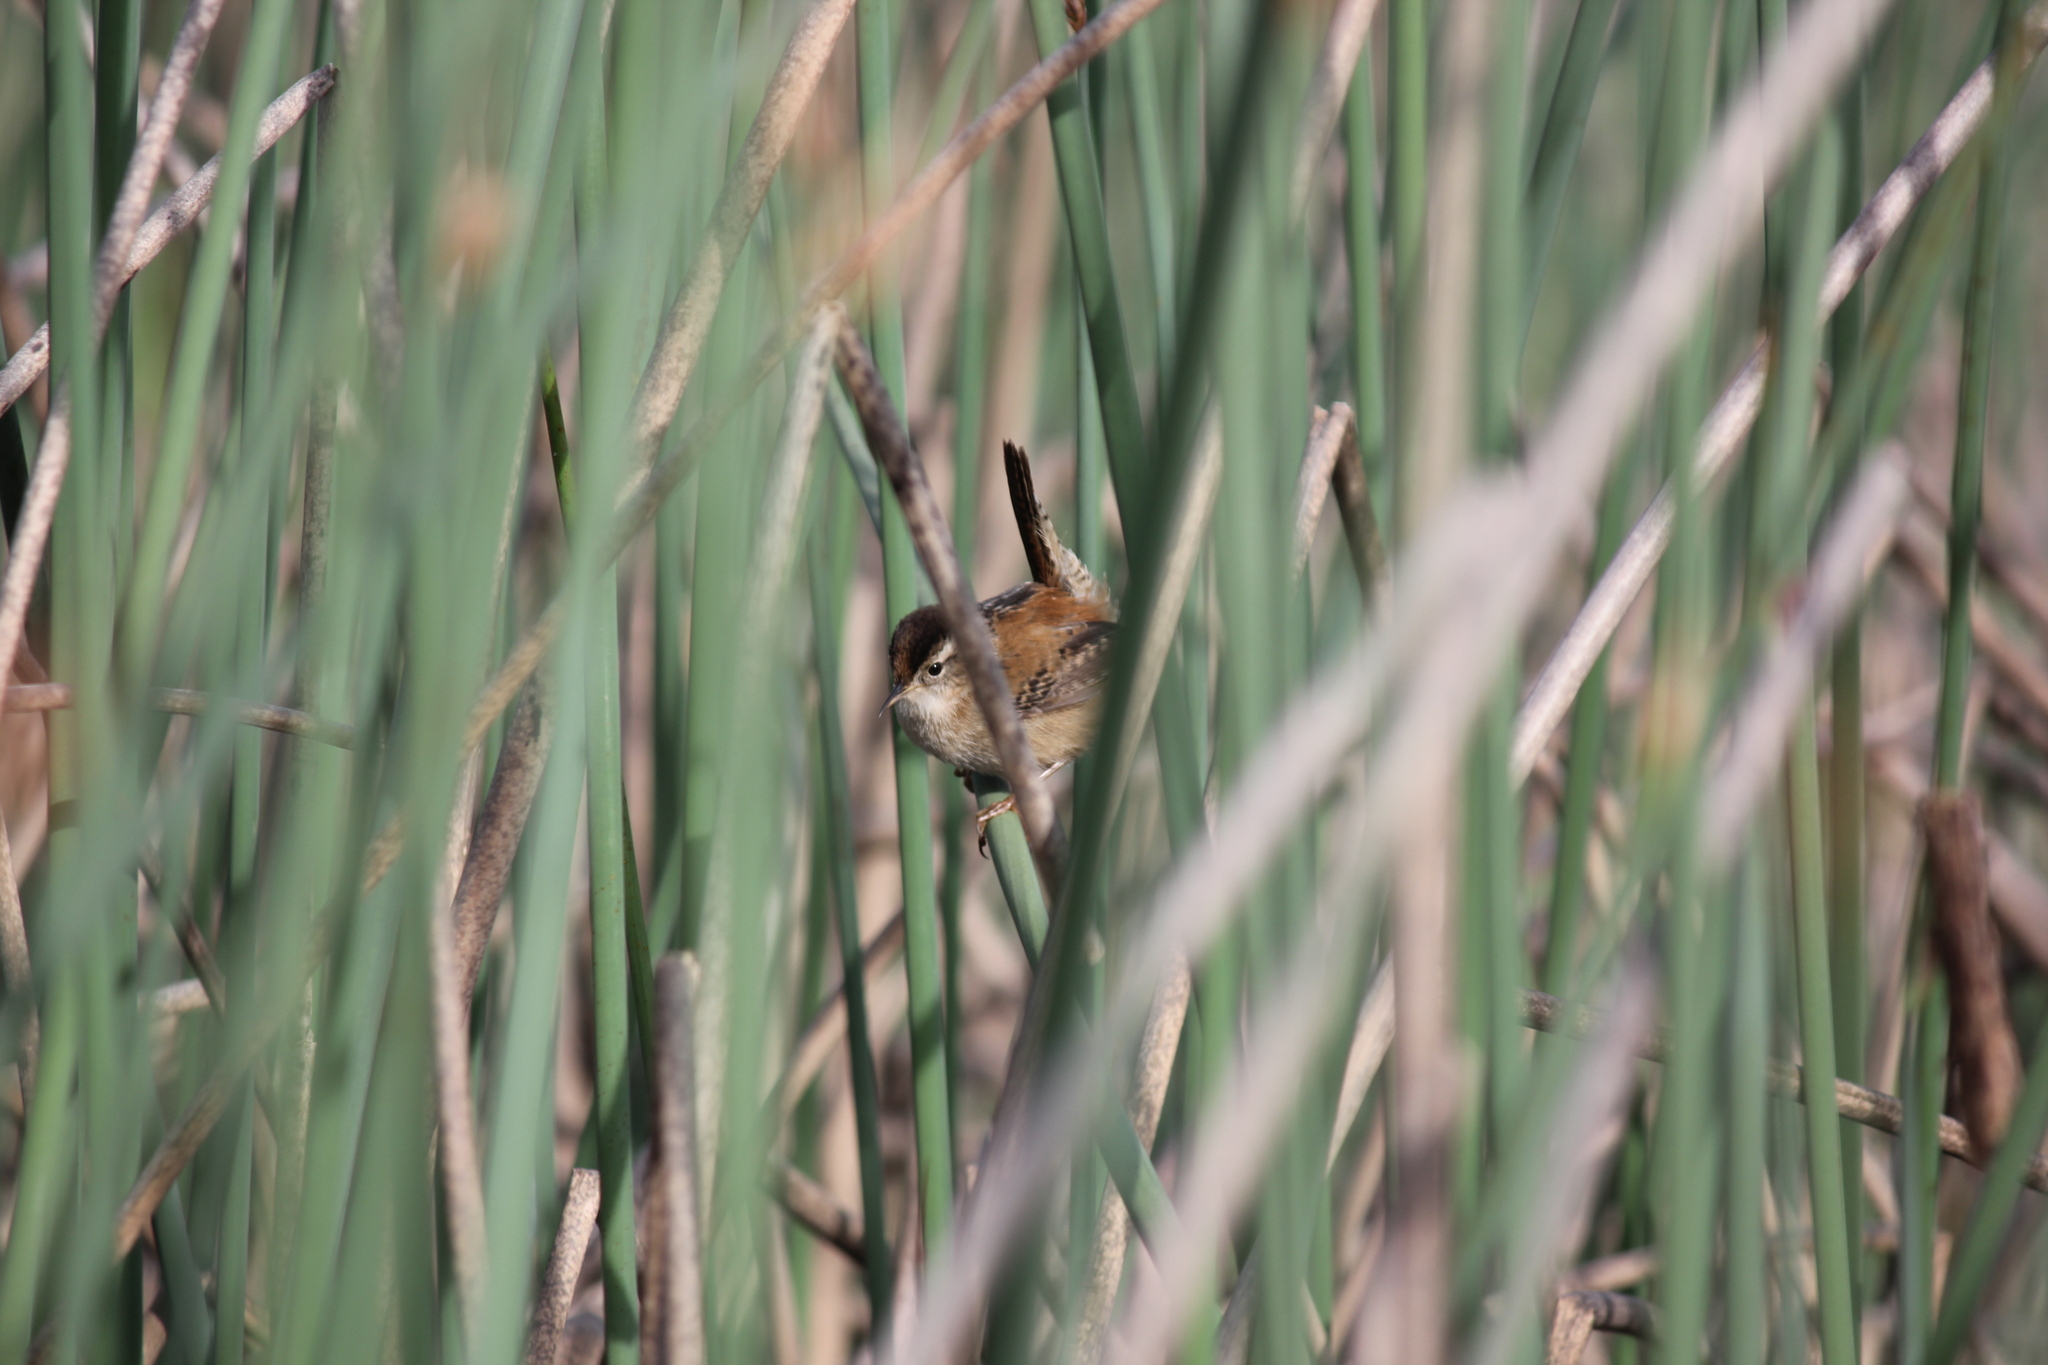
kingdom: Animalia
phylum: Chordata
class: Aves
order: Passeriformes
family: Troglodytidae
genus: Cistothorus
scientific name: Cistothorus palustris
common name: Marsh wren
